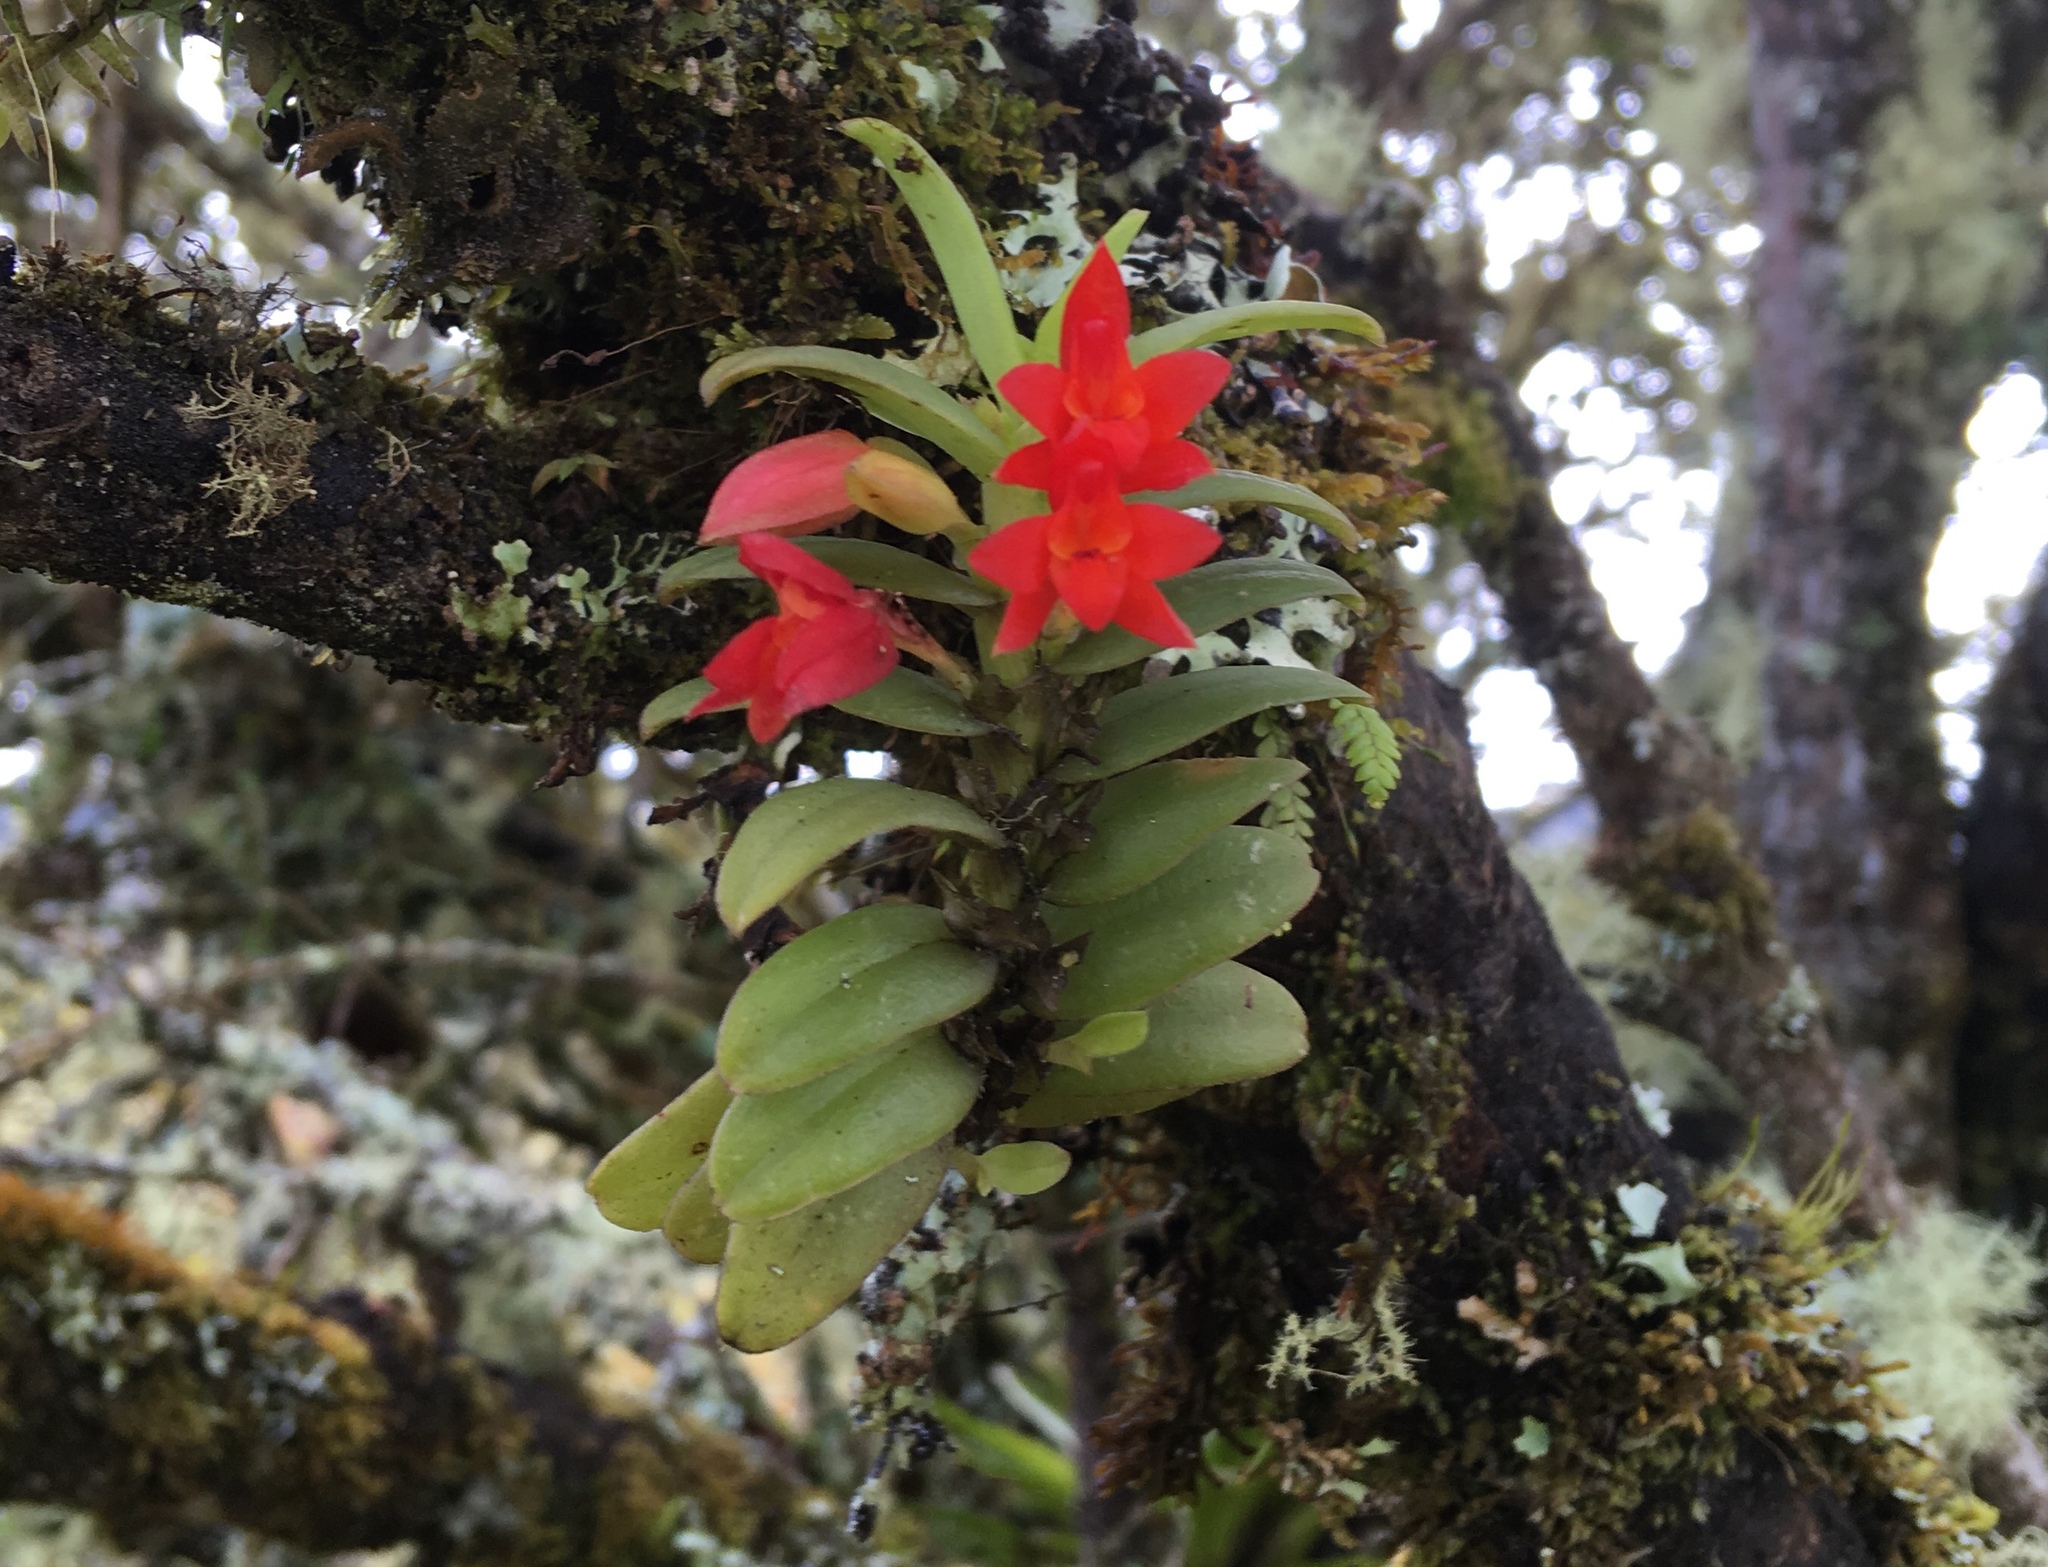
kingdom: Plantae
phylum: Tracheophyta
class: Liliopsida
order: Asparagales
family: Orchidaceae
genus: Fernandezia
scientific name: Fernandezia sanguinea
